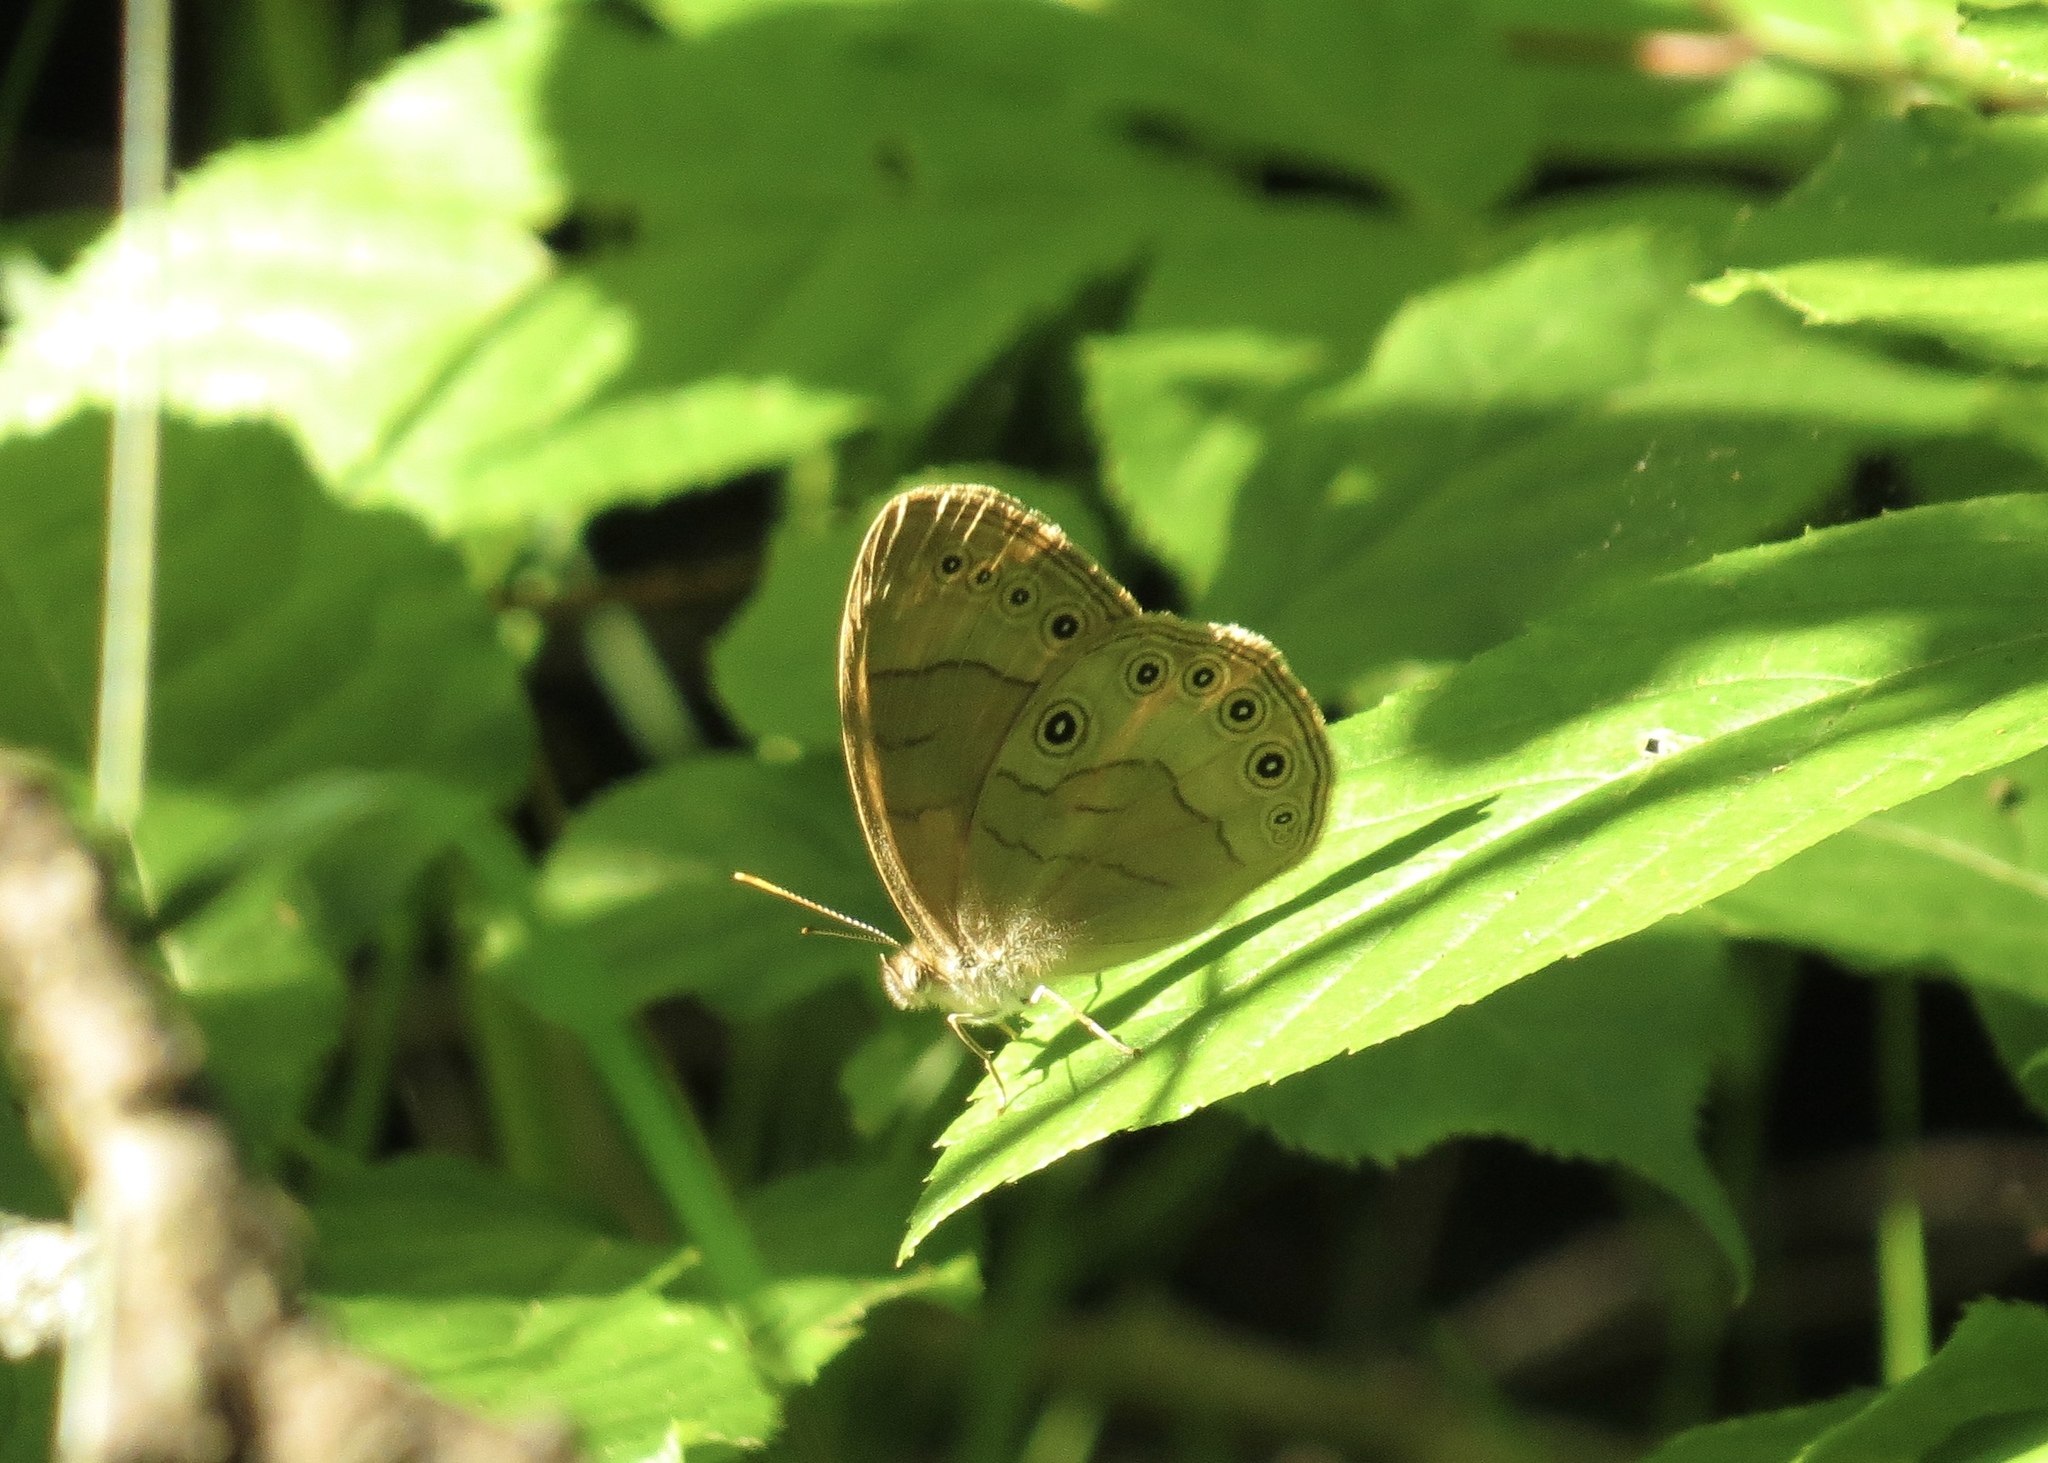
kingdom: Animalia
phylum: Arthropoda
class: Insecta
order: Lepidoptera
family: Nymphalidae
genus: Lethe
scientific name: Lethe eurydice
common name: Eyed brown
